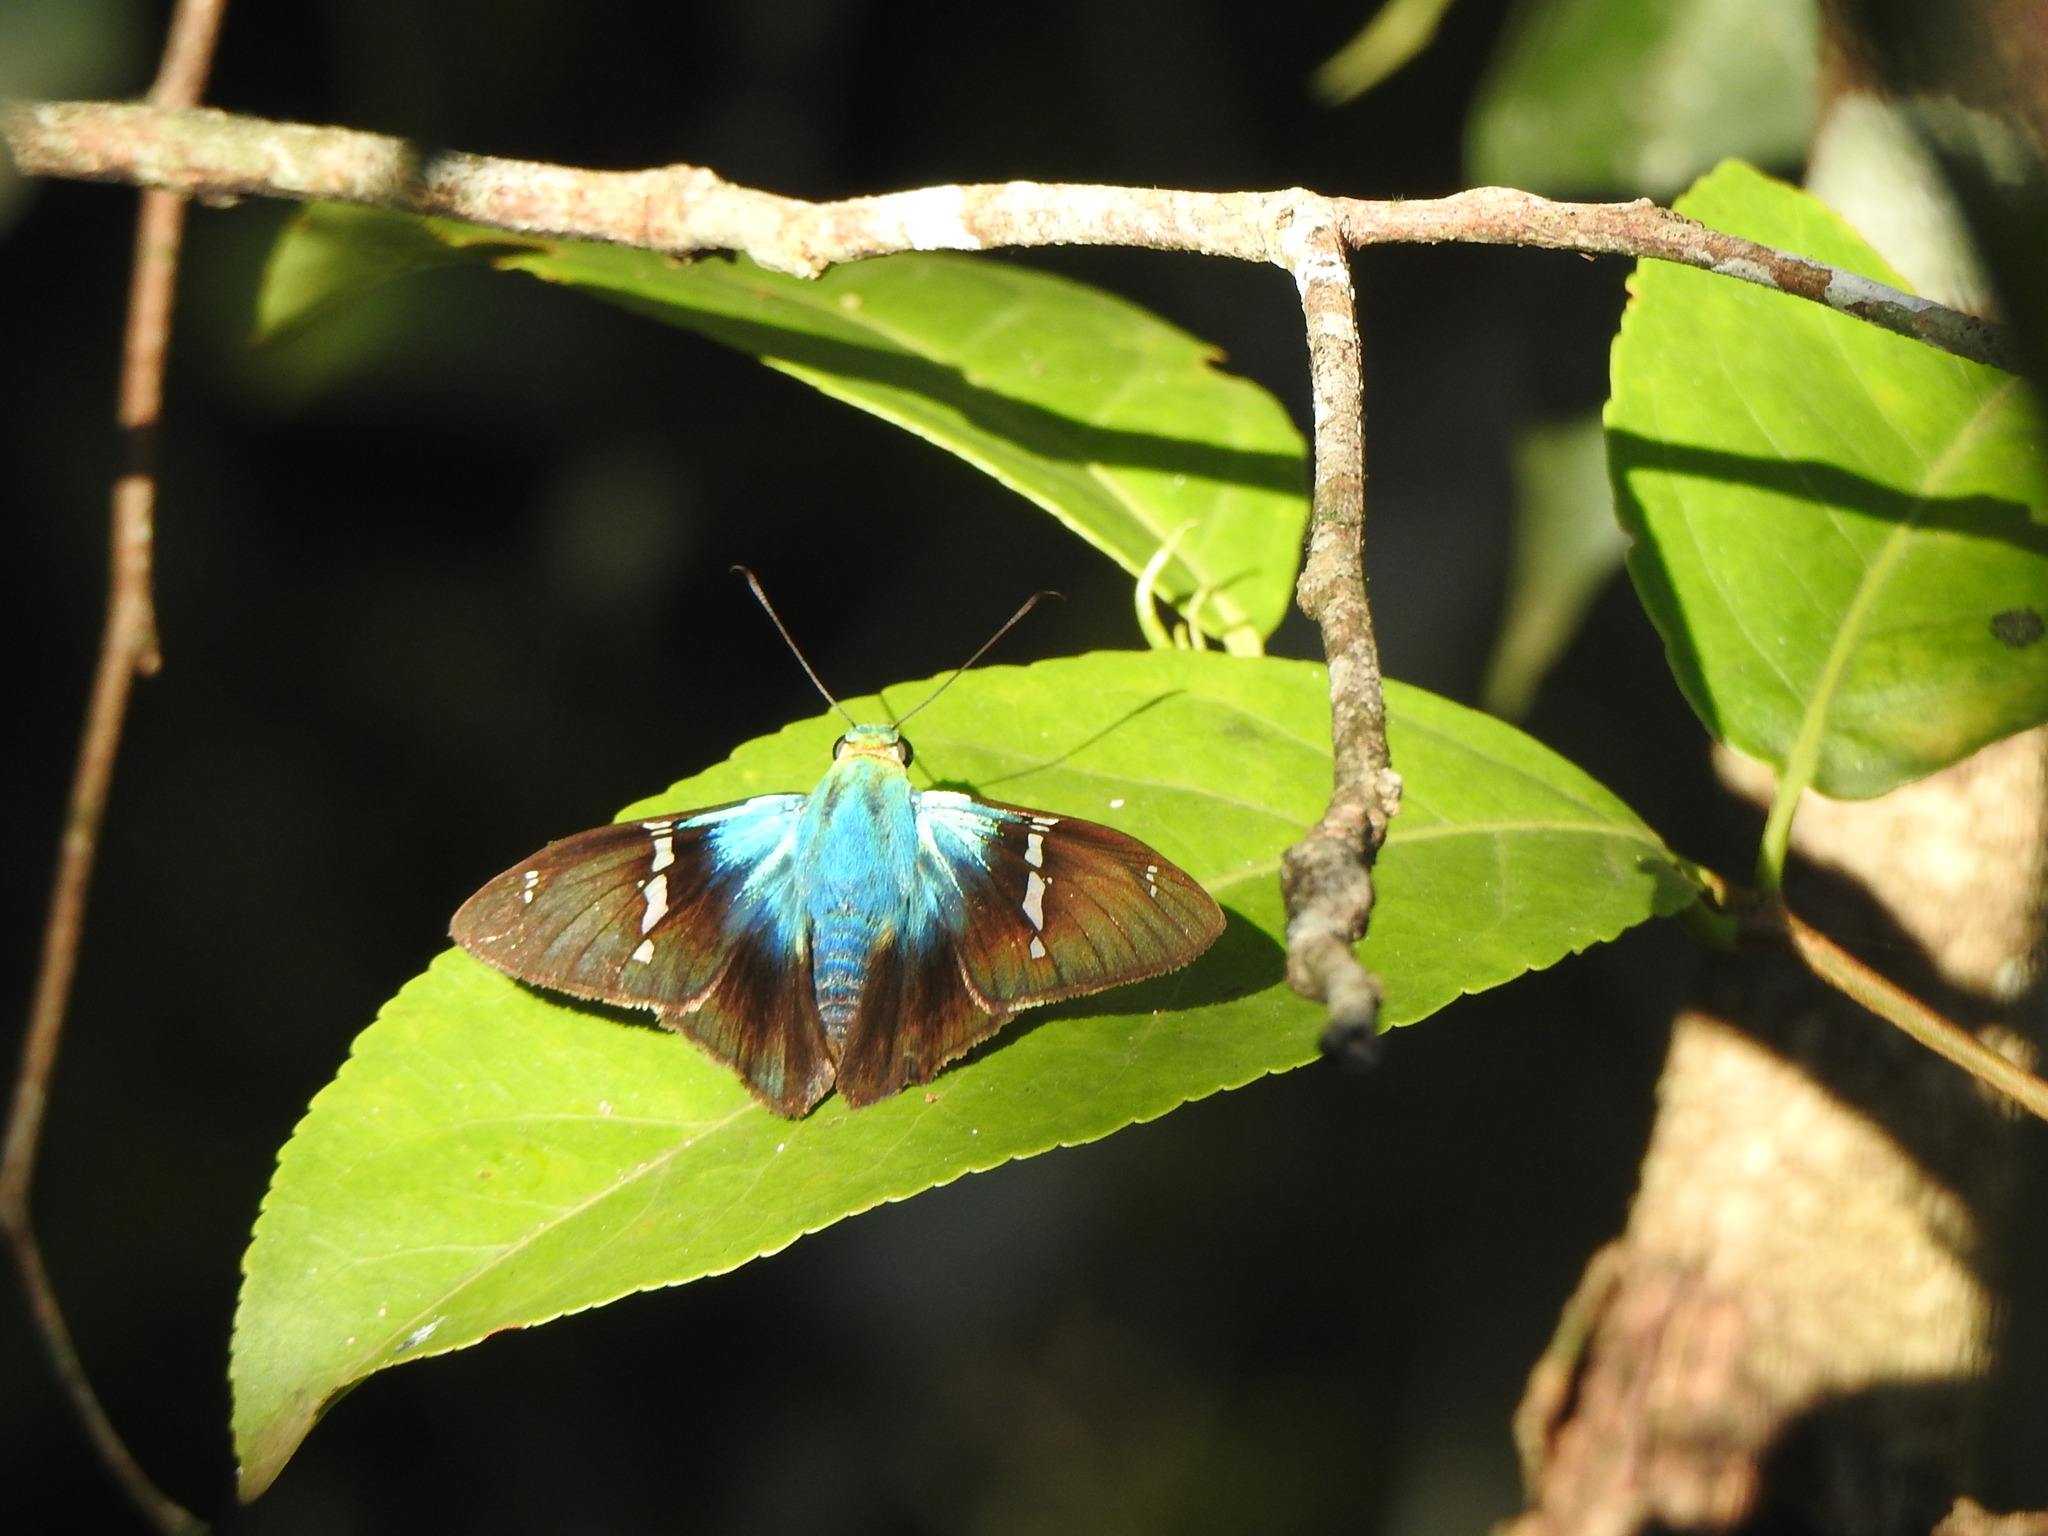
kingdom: Animalia
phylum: Arthropoda
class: Insecta
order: Lepidoptera
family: Hesperiidae
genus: Astraptes
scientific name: Astraptes fulgerator
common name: Two-barred flasher
